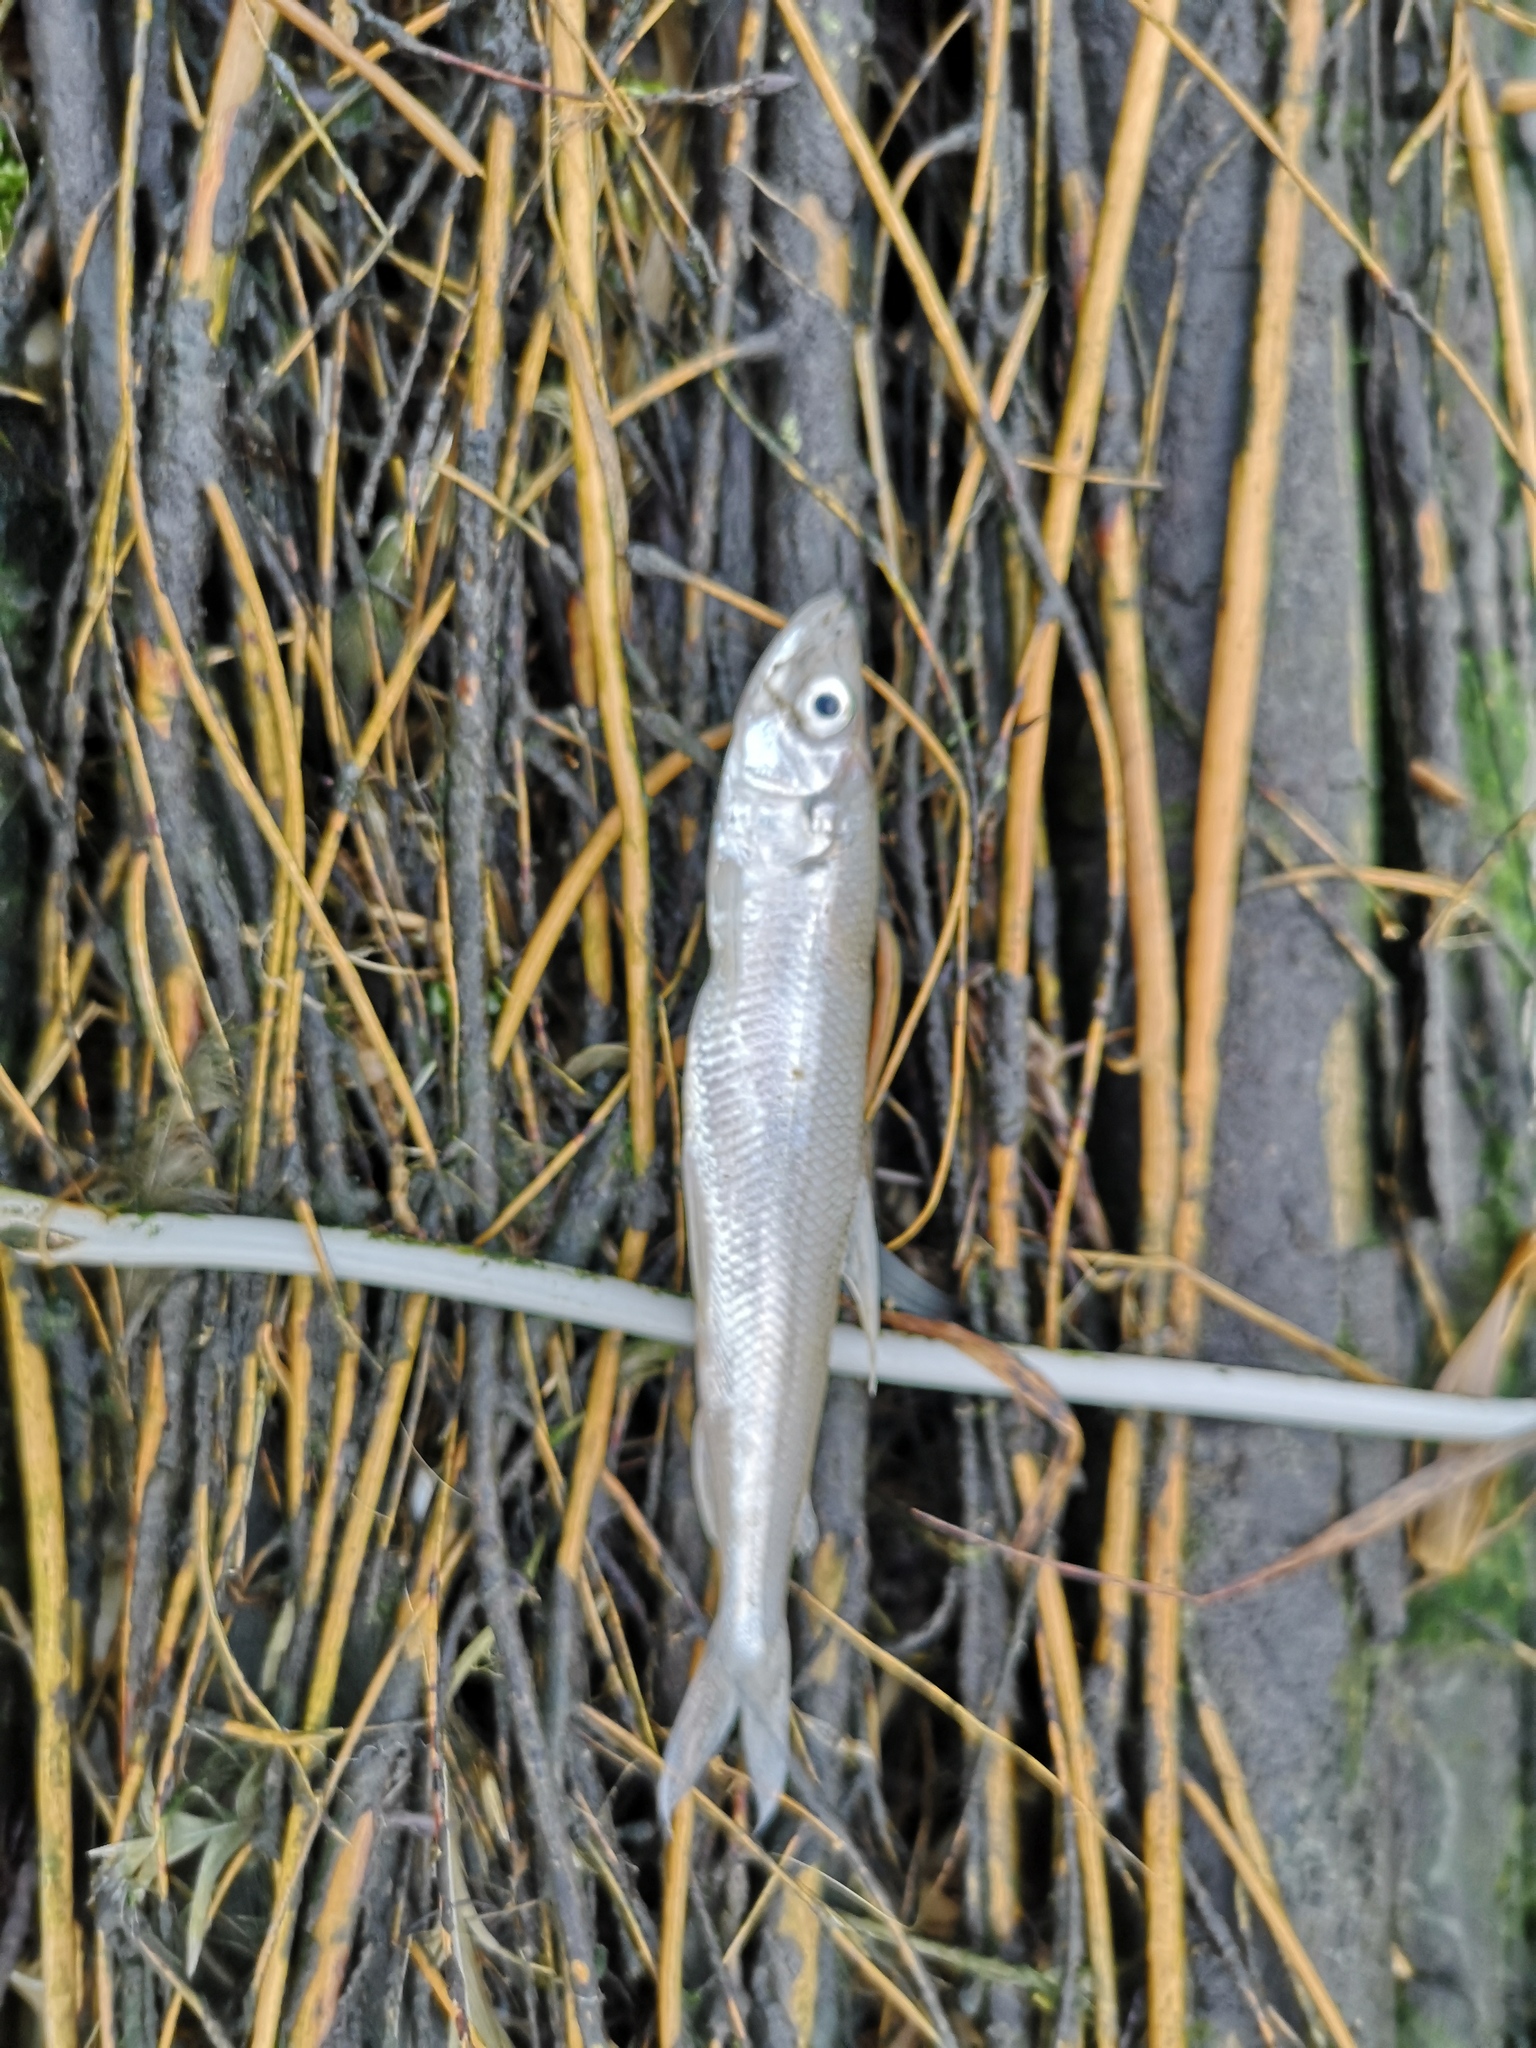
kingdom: Animalia
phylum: Chordata
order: Osmeriformes
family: Osmeridae
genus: Osmerus
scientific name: Osmerus eperlanus
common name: Smelt
